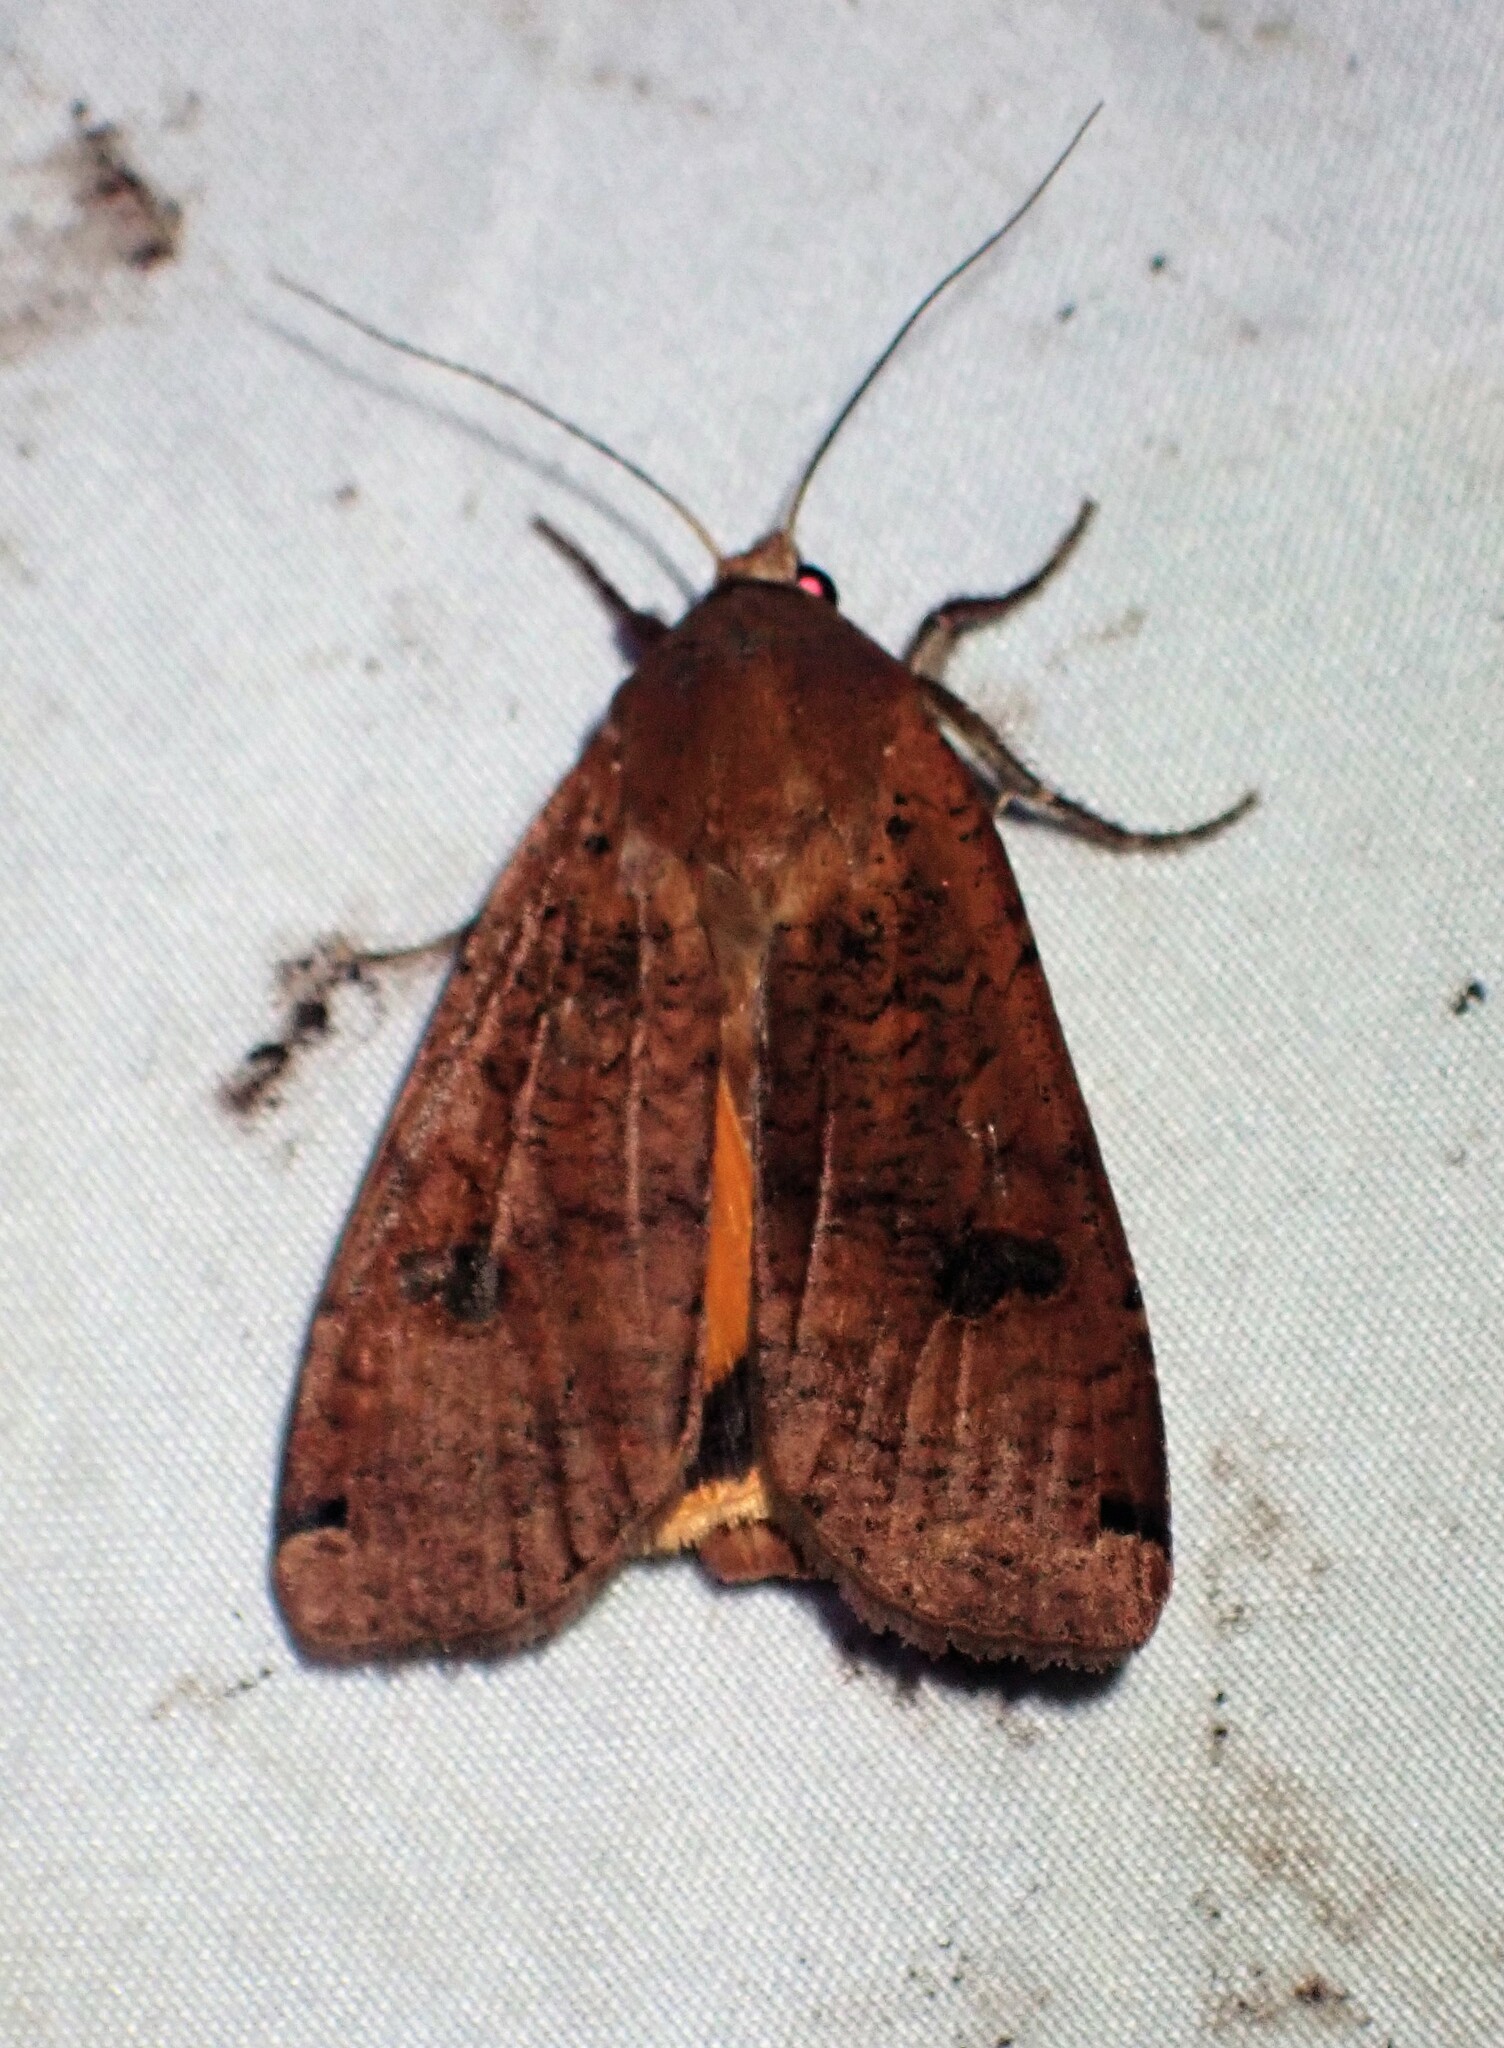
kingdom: Animalia
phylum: Arthropoda
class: Insecta
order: Lepidoptera
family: Noctuidae
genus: Noctua
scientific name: Noctua pronuba
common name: Large yellow underwing
